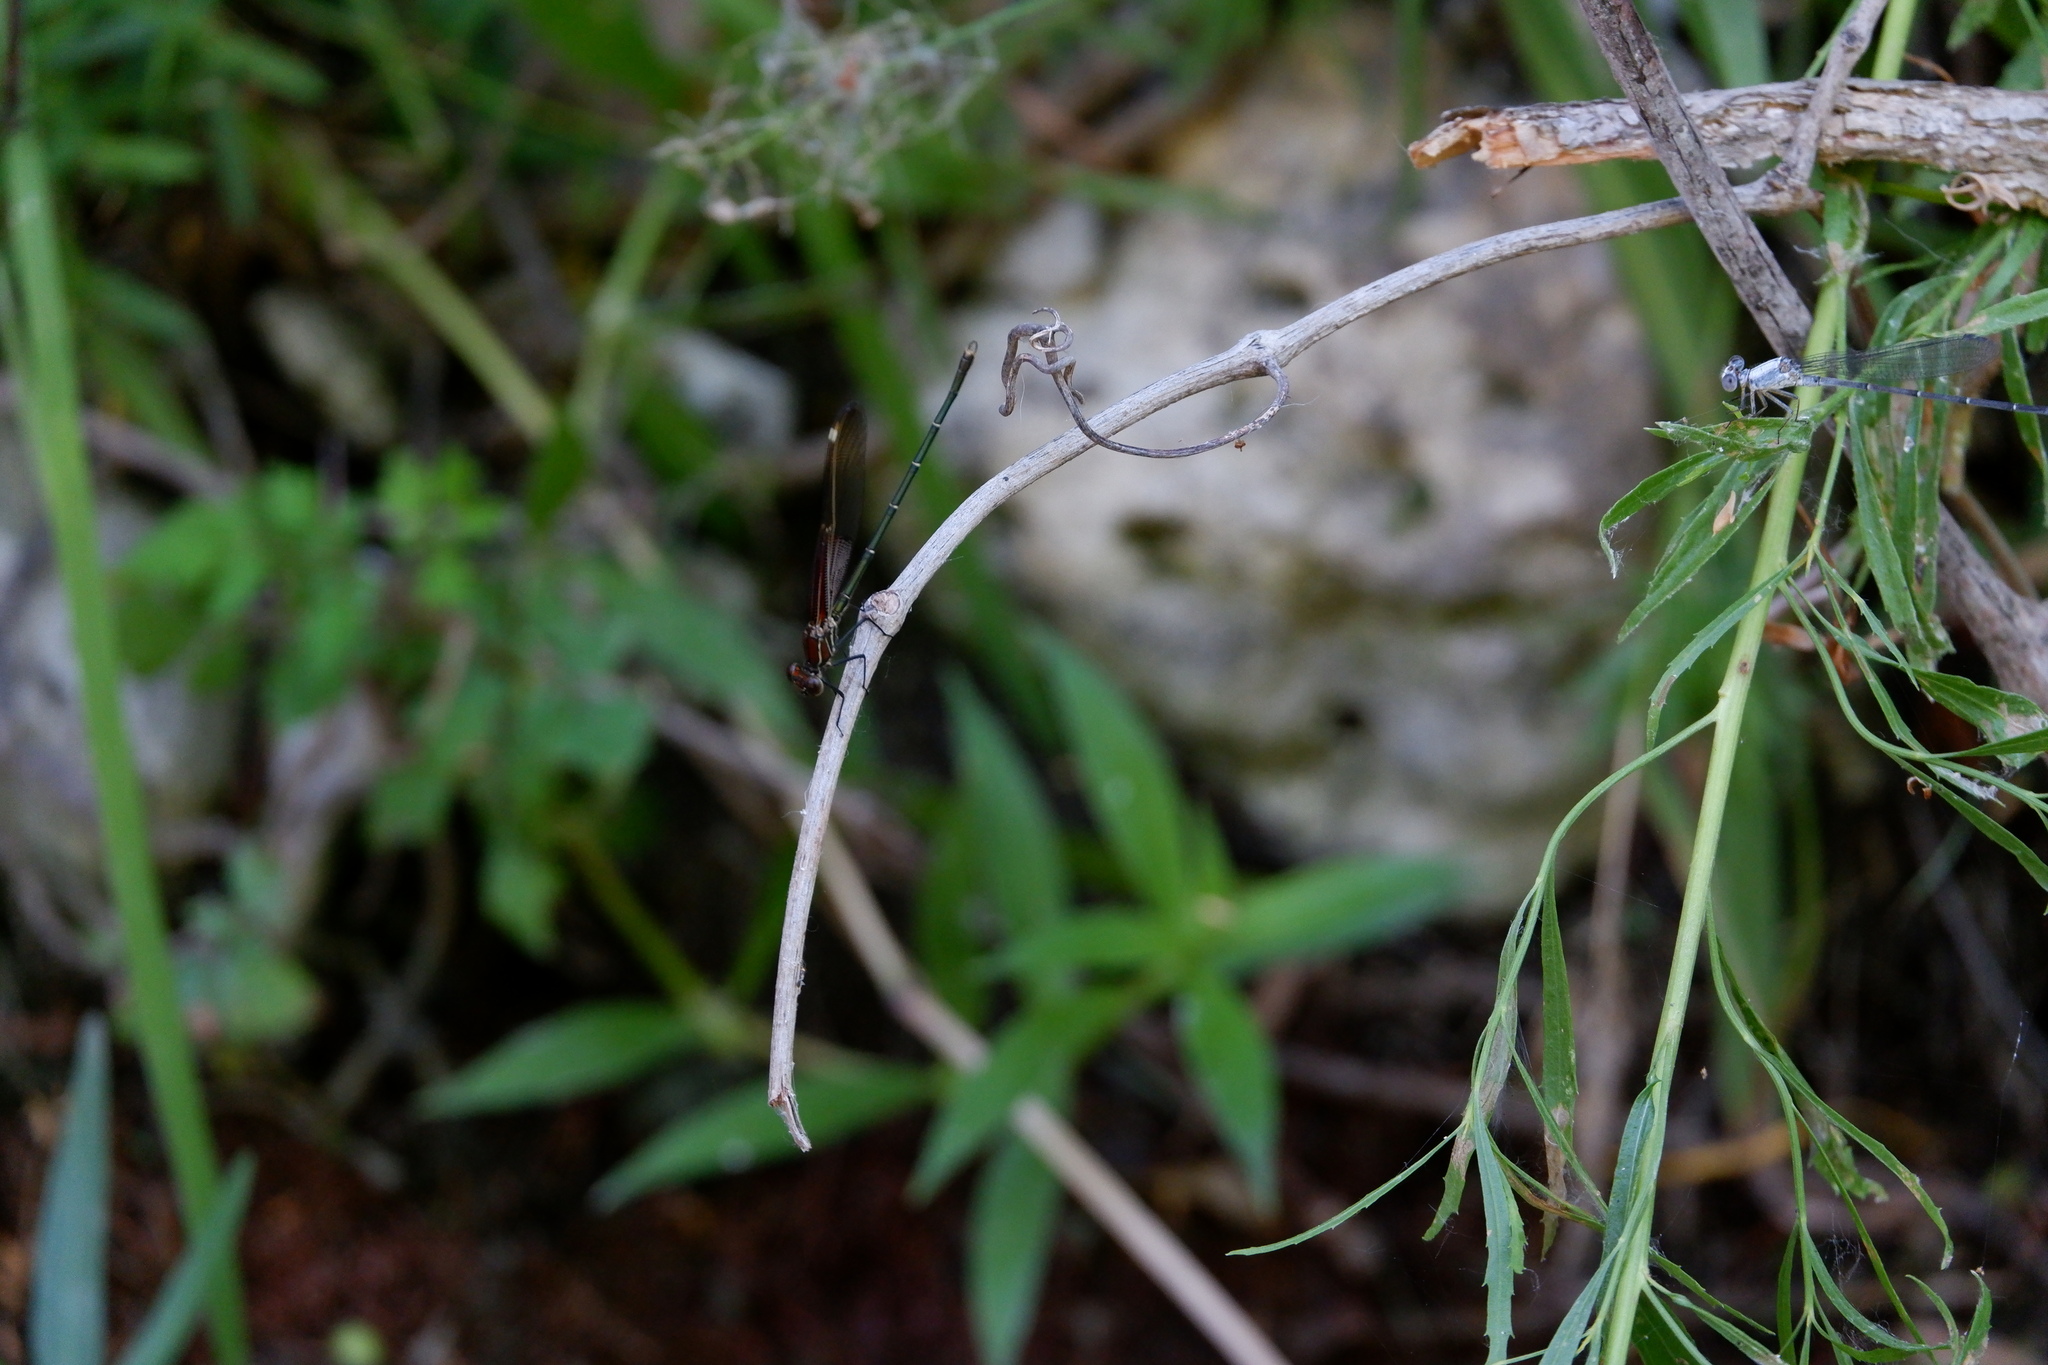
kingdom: Animalia
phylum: Arthropoda
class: Insecta
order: Odonata
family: Calopterygidae
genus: Hetaerina
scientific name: Hetaerina americana
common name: American rubyspot
